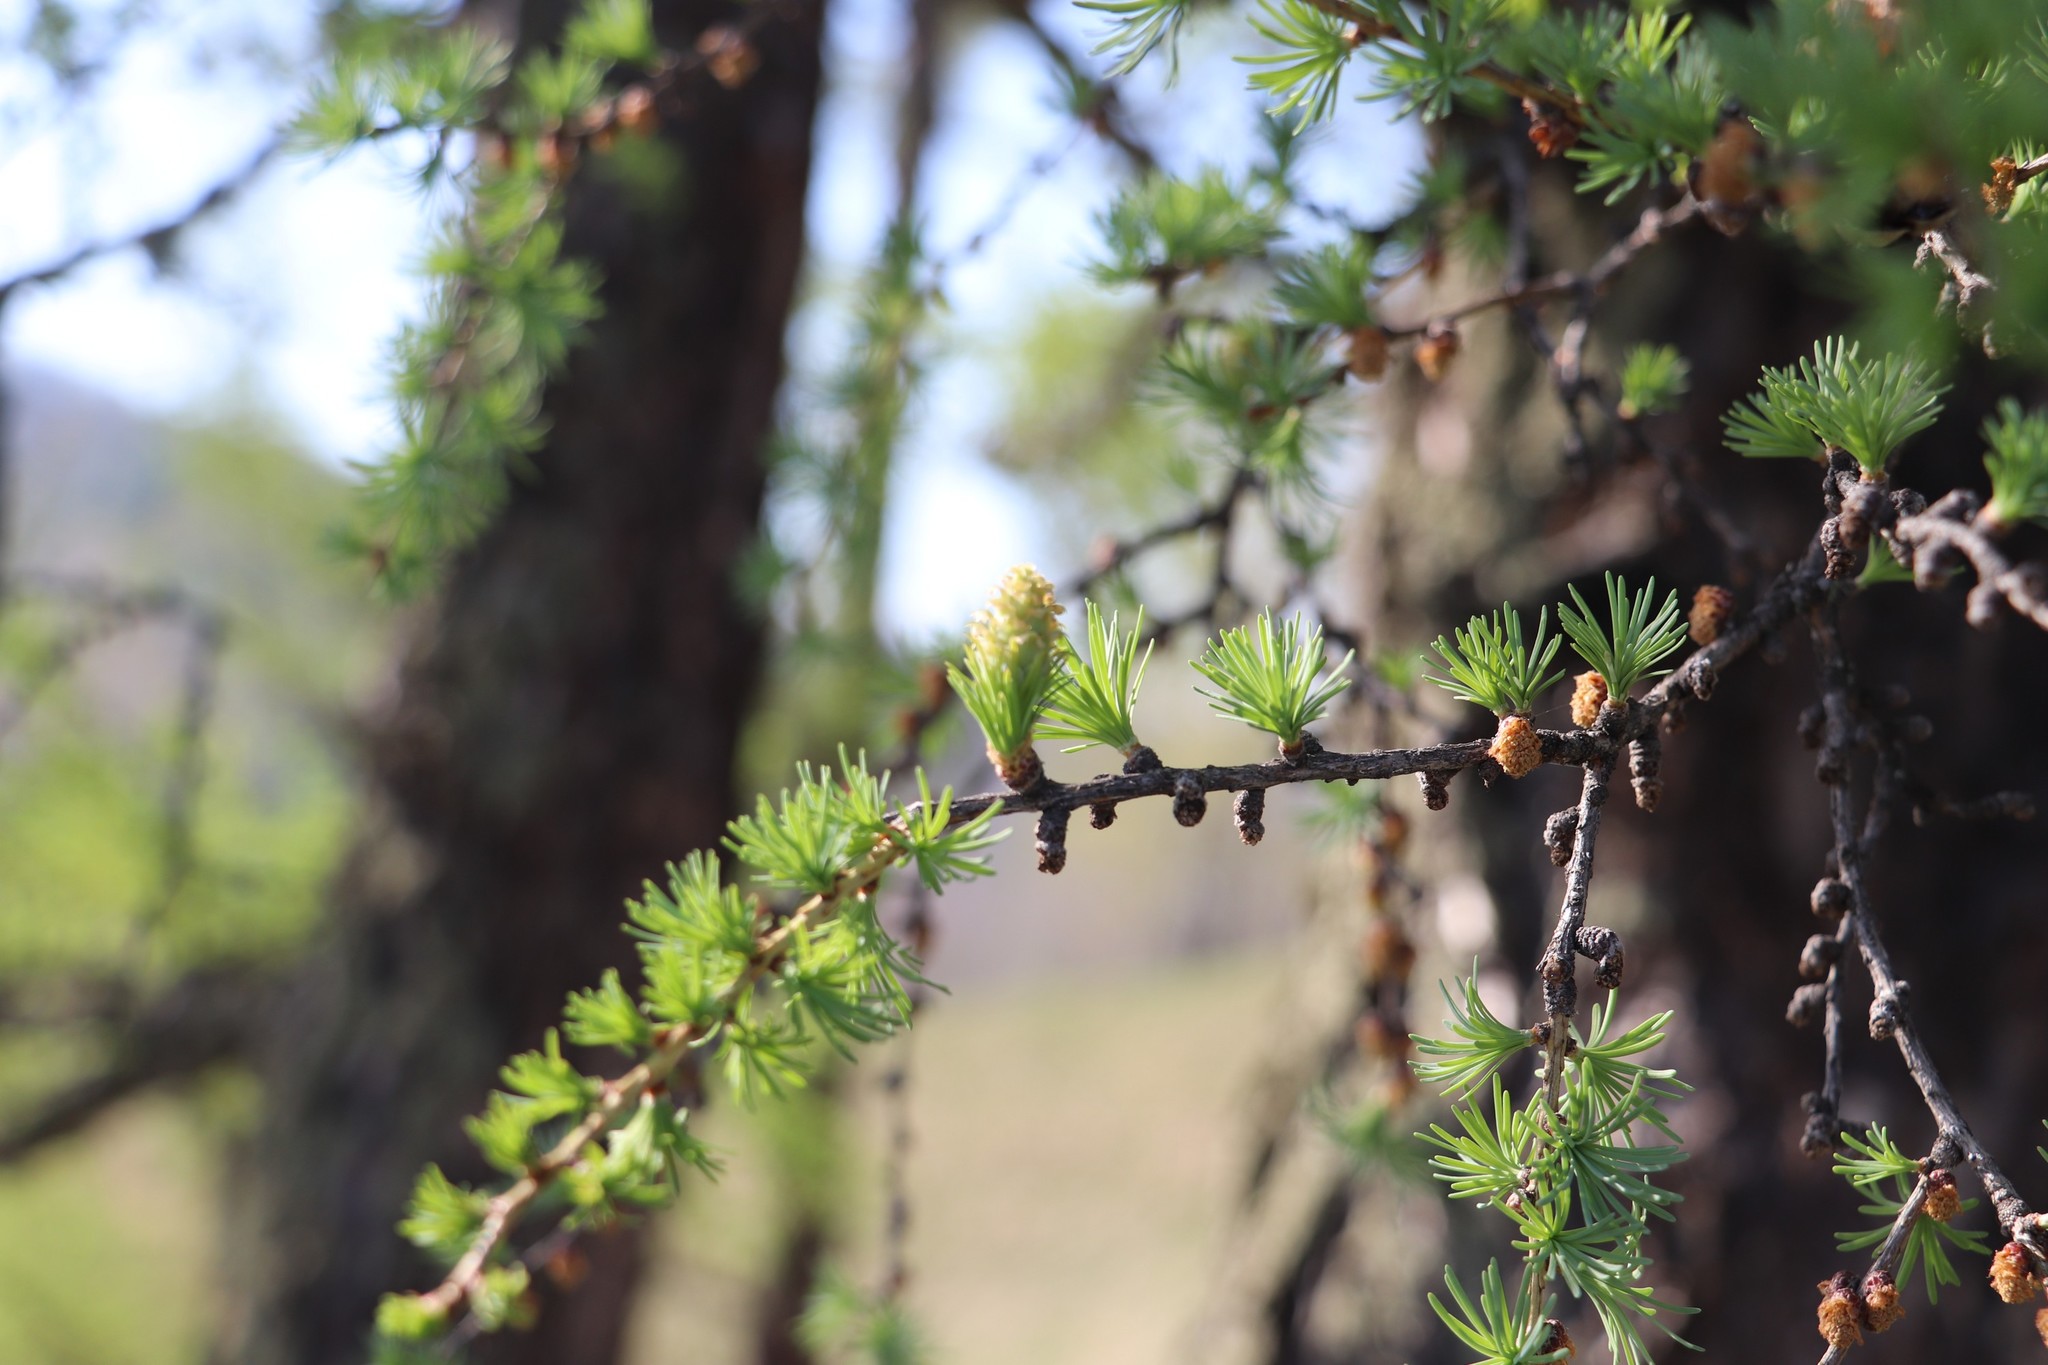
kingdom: Plantae
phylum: Tracheophyta
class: Pinopsida
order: Pinales
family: Pinaceae
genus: Larix
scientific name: Larix sibirica
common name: Siberian larch
